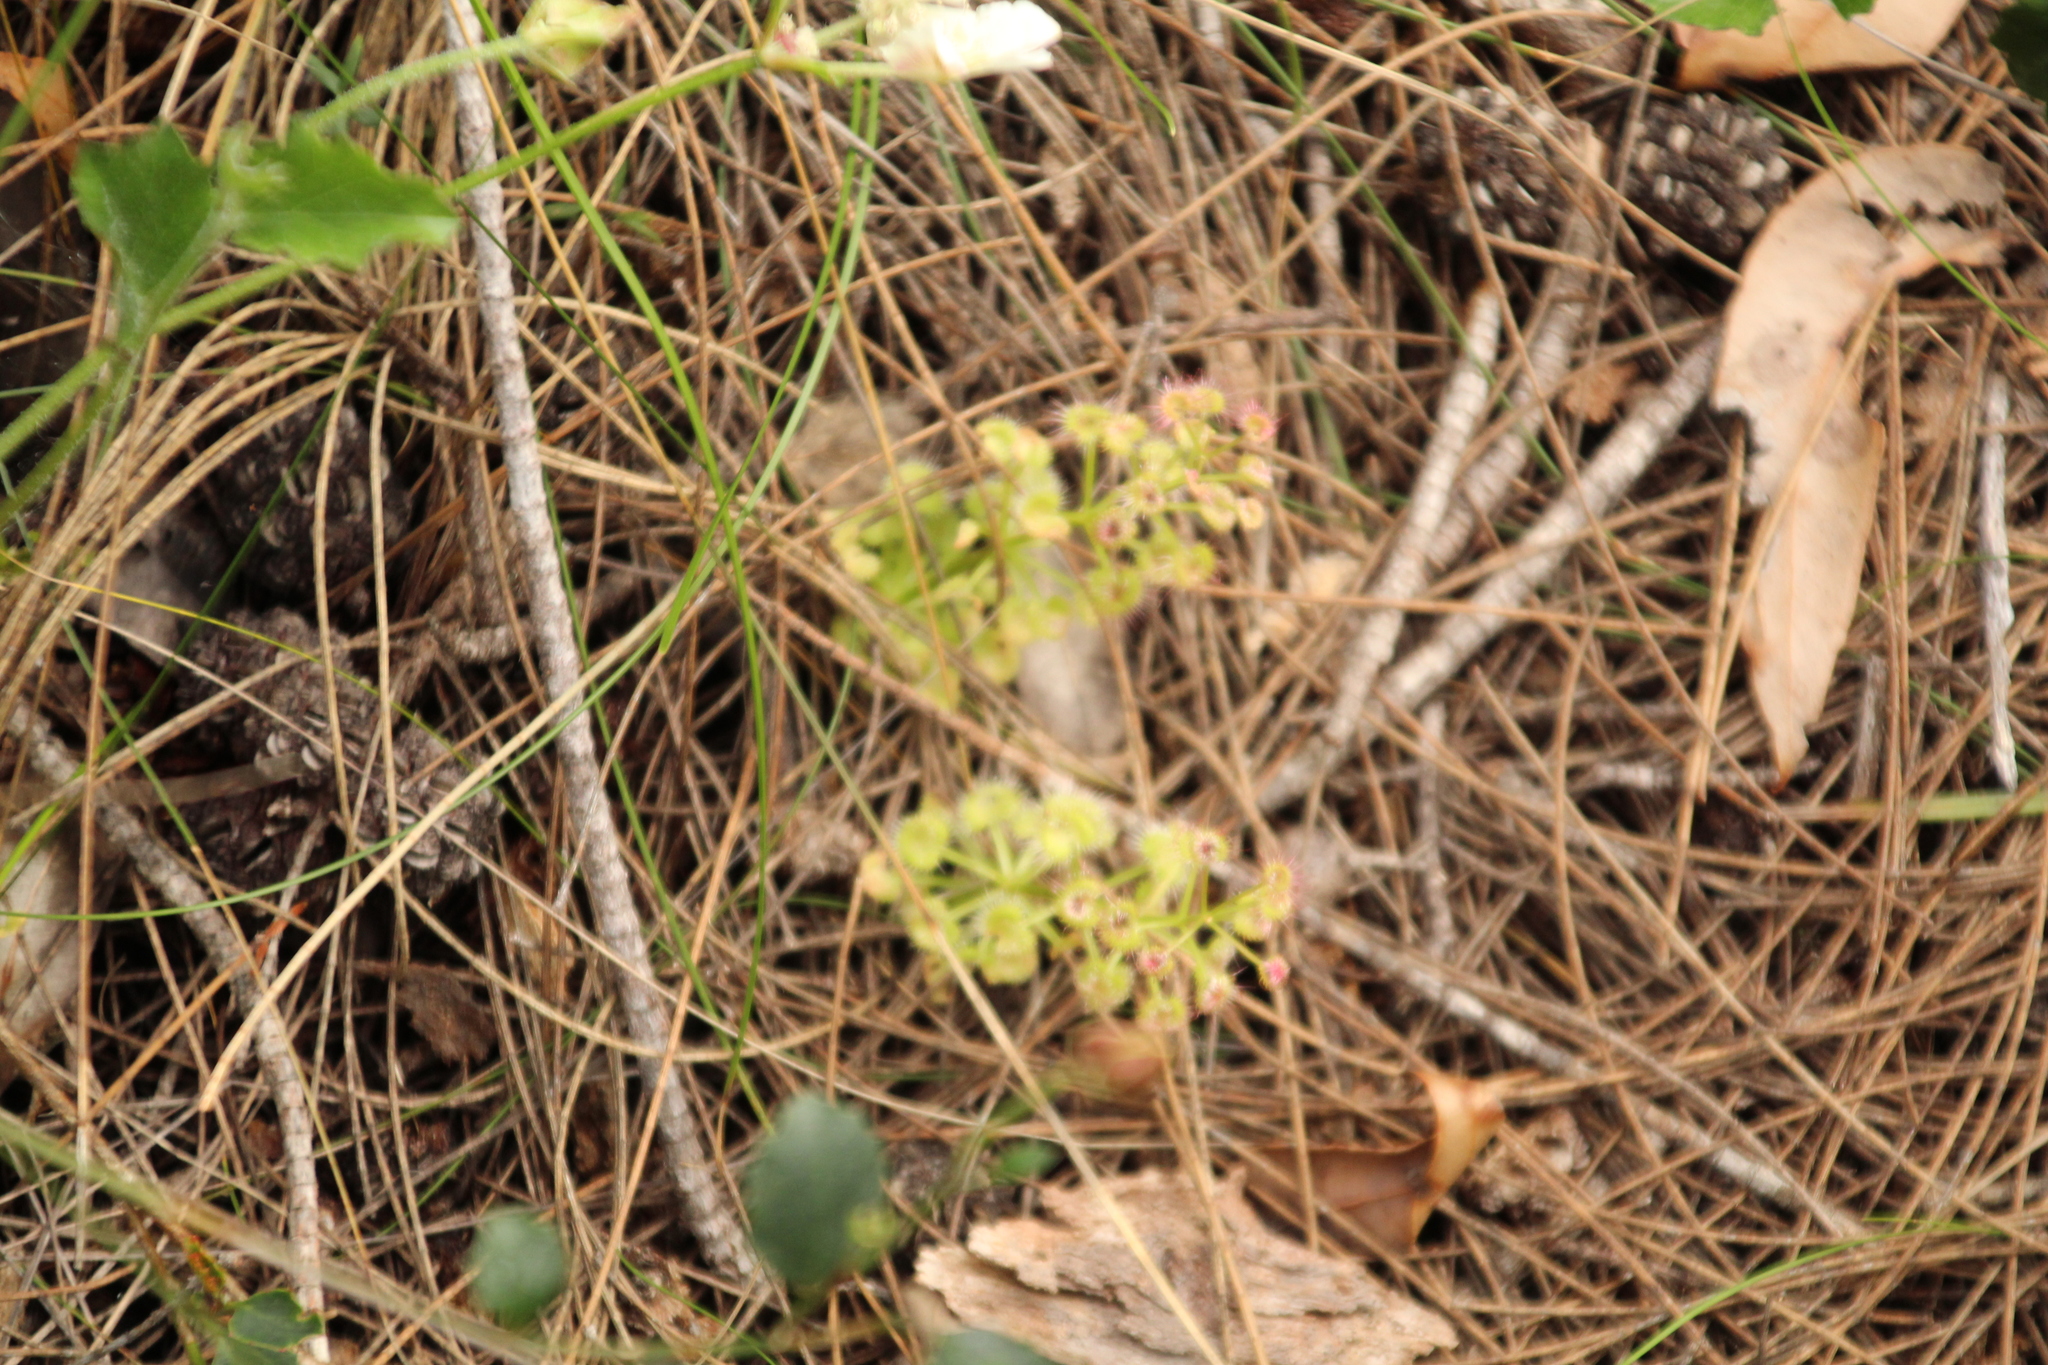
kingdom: Plantae
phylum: Tracheophyta
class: Magnoliopsida
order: Caryophyllales
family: Droseraceae
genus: Drosera
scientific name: Drosera stolonifera
